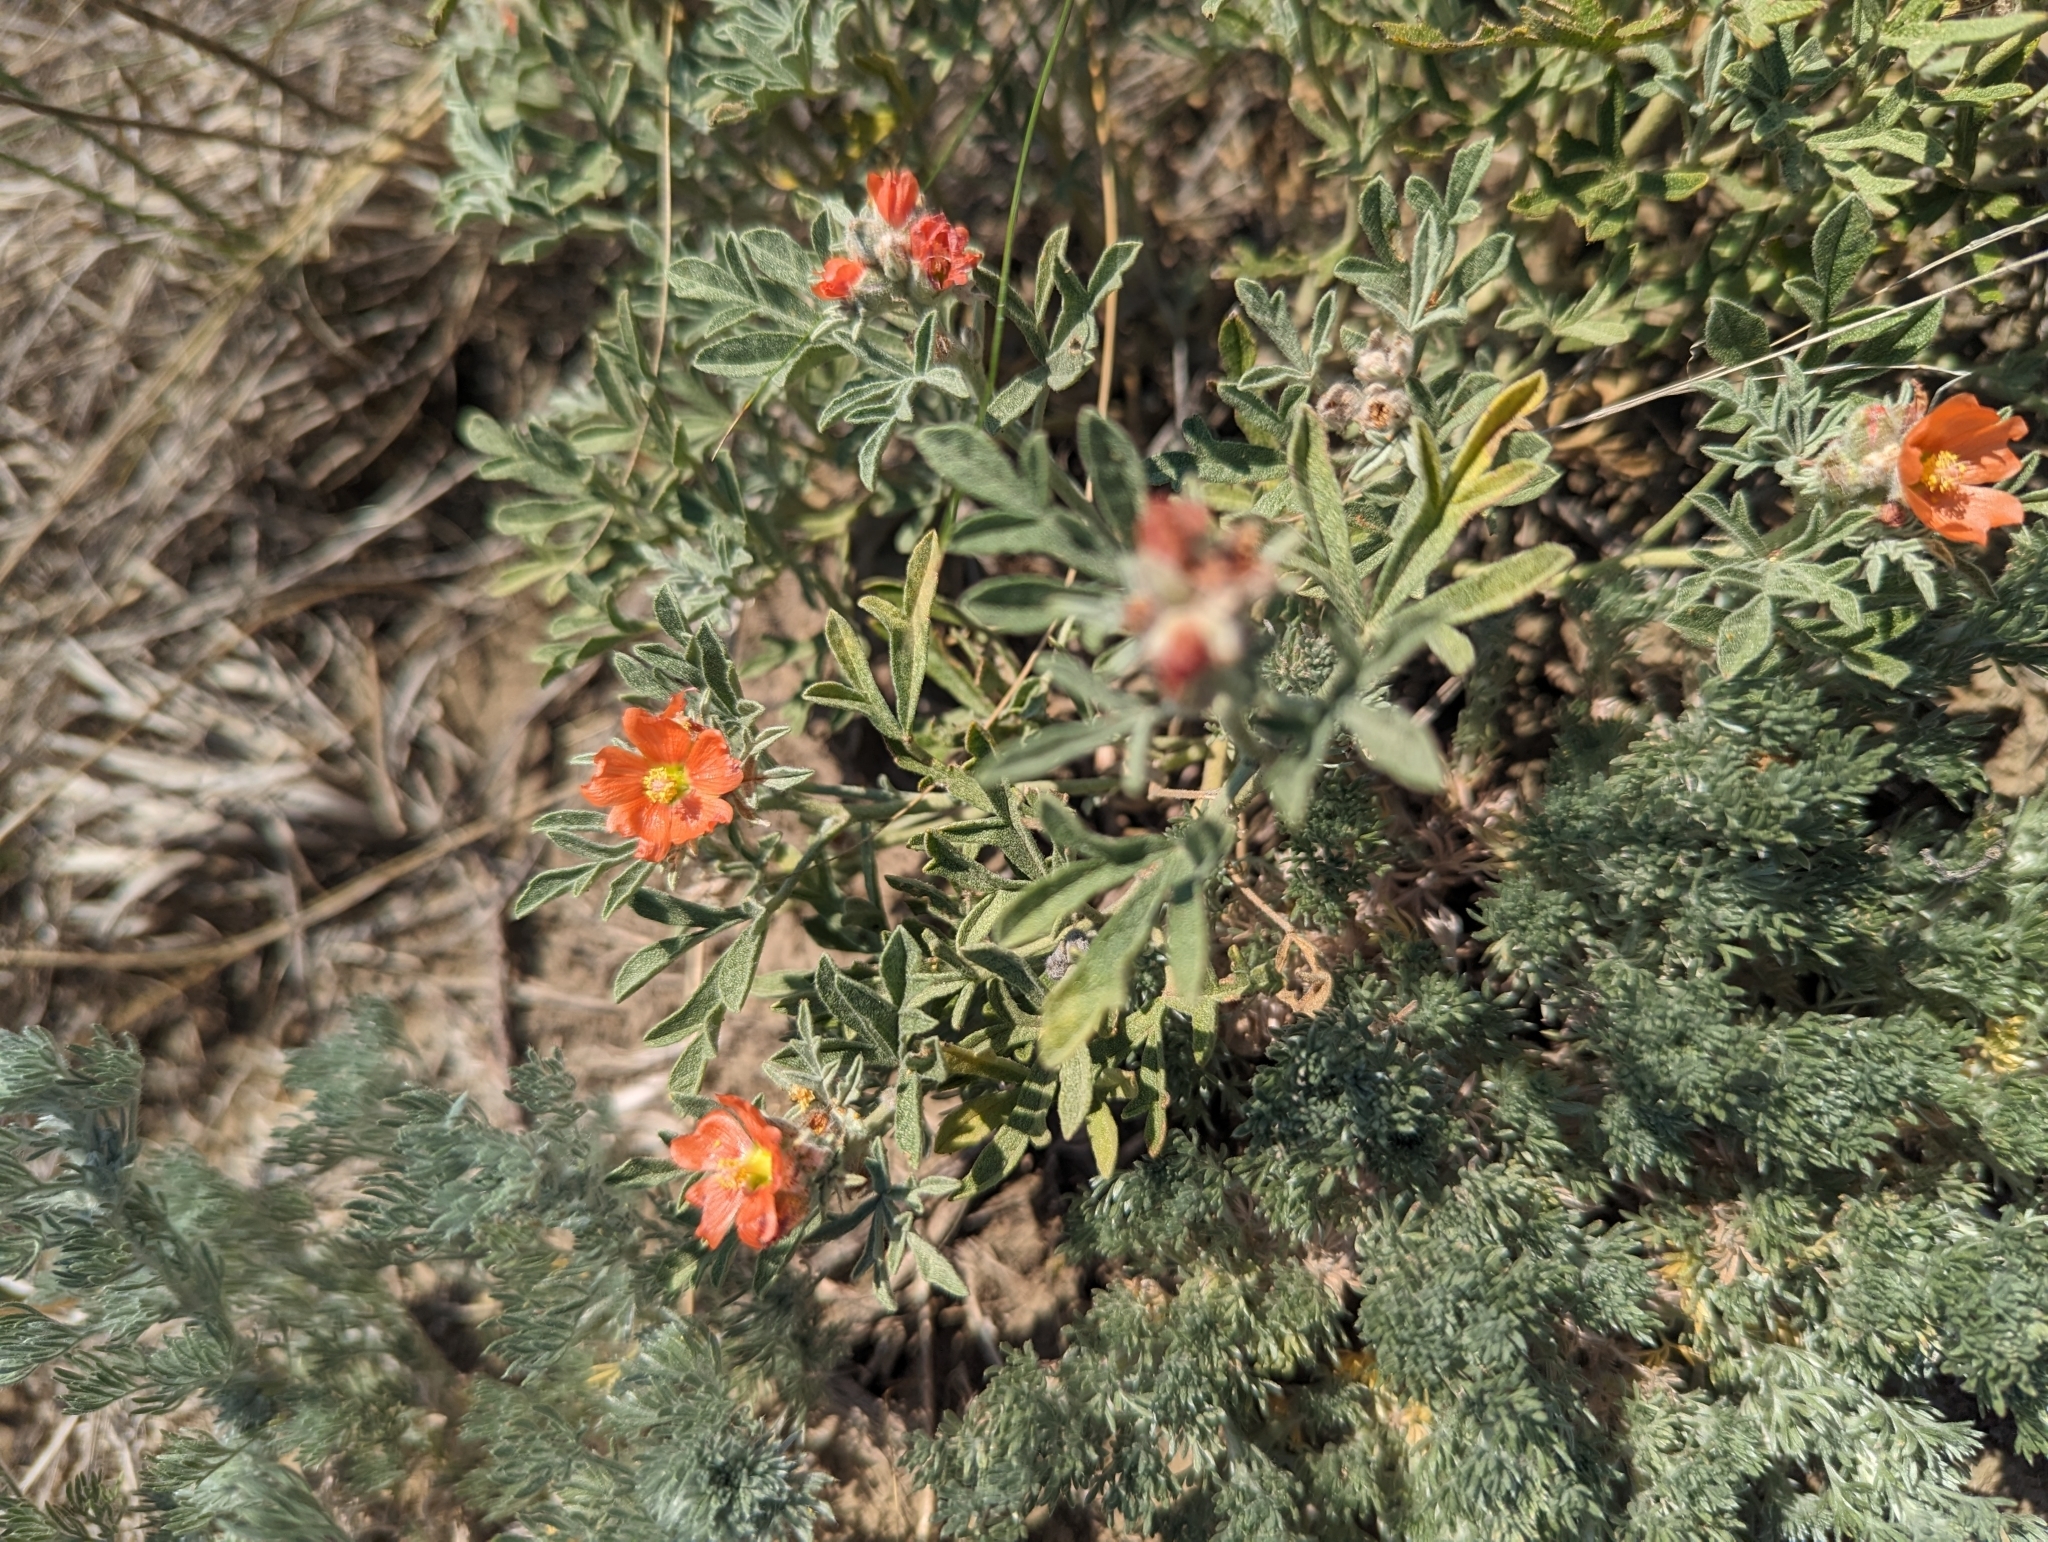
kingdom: Plantae
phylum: Tracheophyta
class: Magnoliopsida
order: Malvales
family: Malvaceae
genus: Sphaeralcea
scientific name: Sphaeralcea coccinea
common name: Moss-rose
